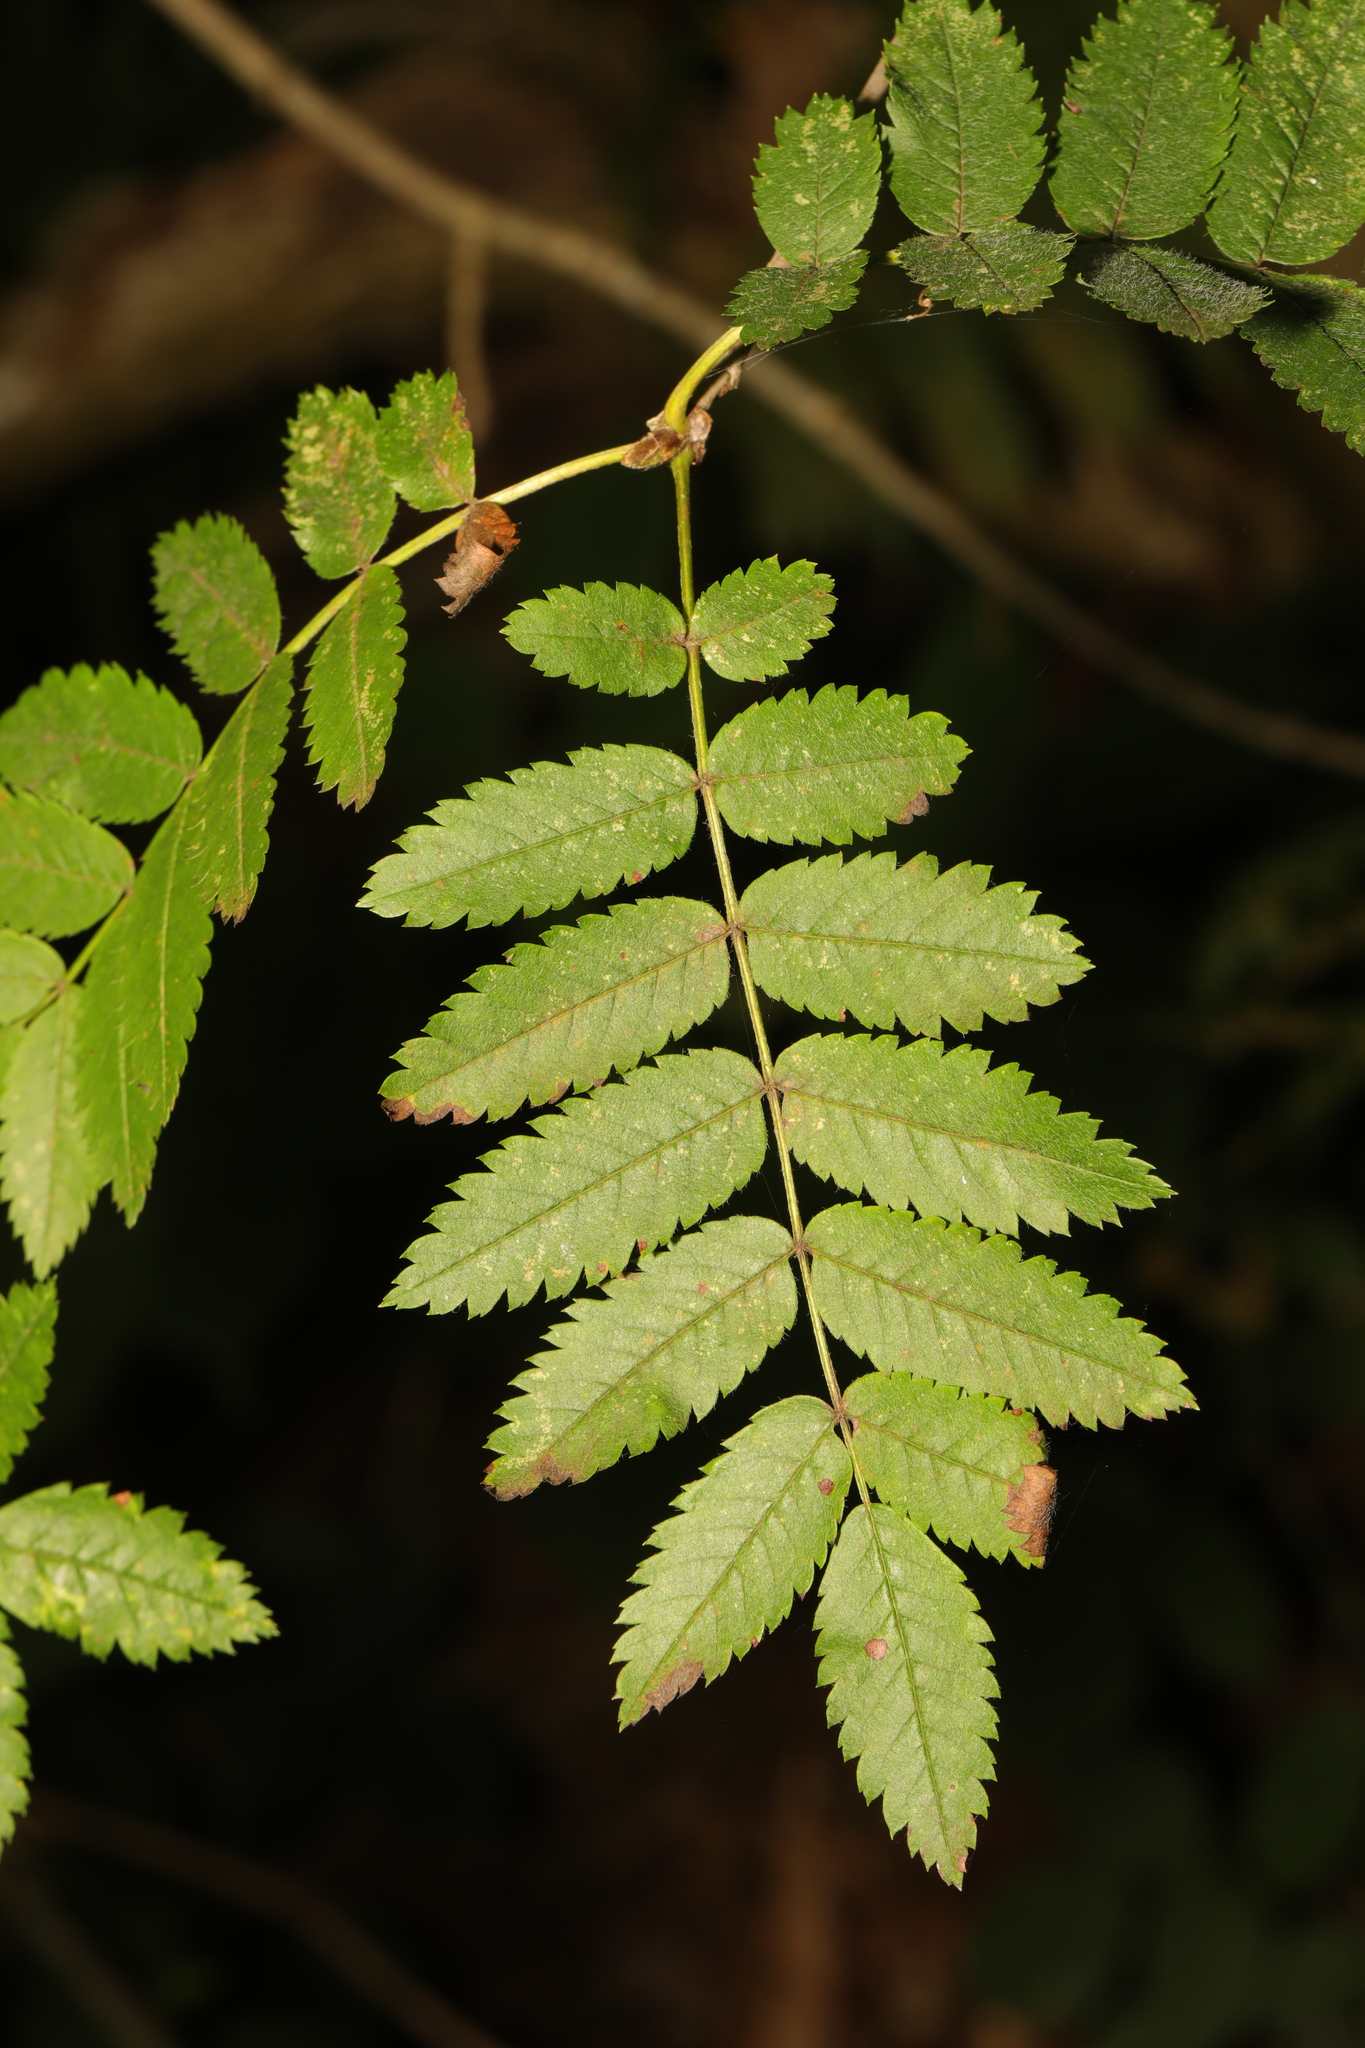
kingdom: Plantae
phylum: Tracheophyta
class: Magnoliopsida
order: Rosales
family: Rosaceae
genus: Sorbus
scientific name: Sorbus aucuparia
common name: Rowan
